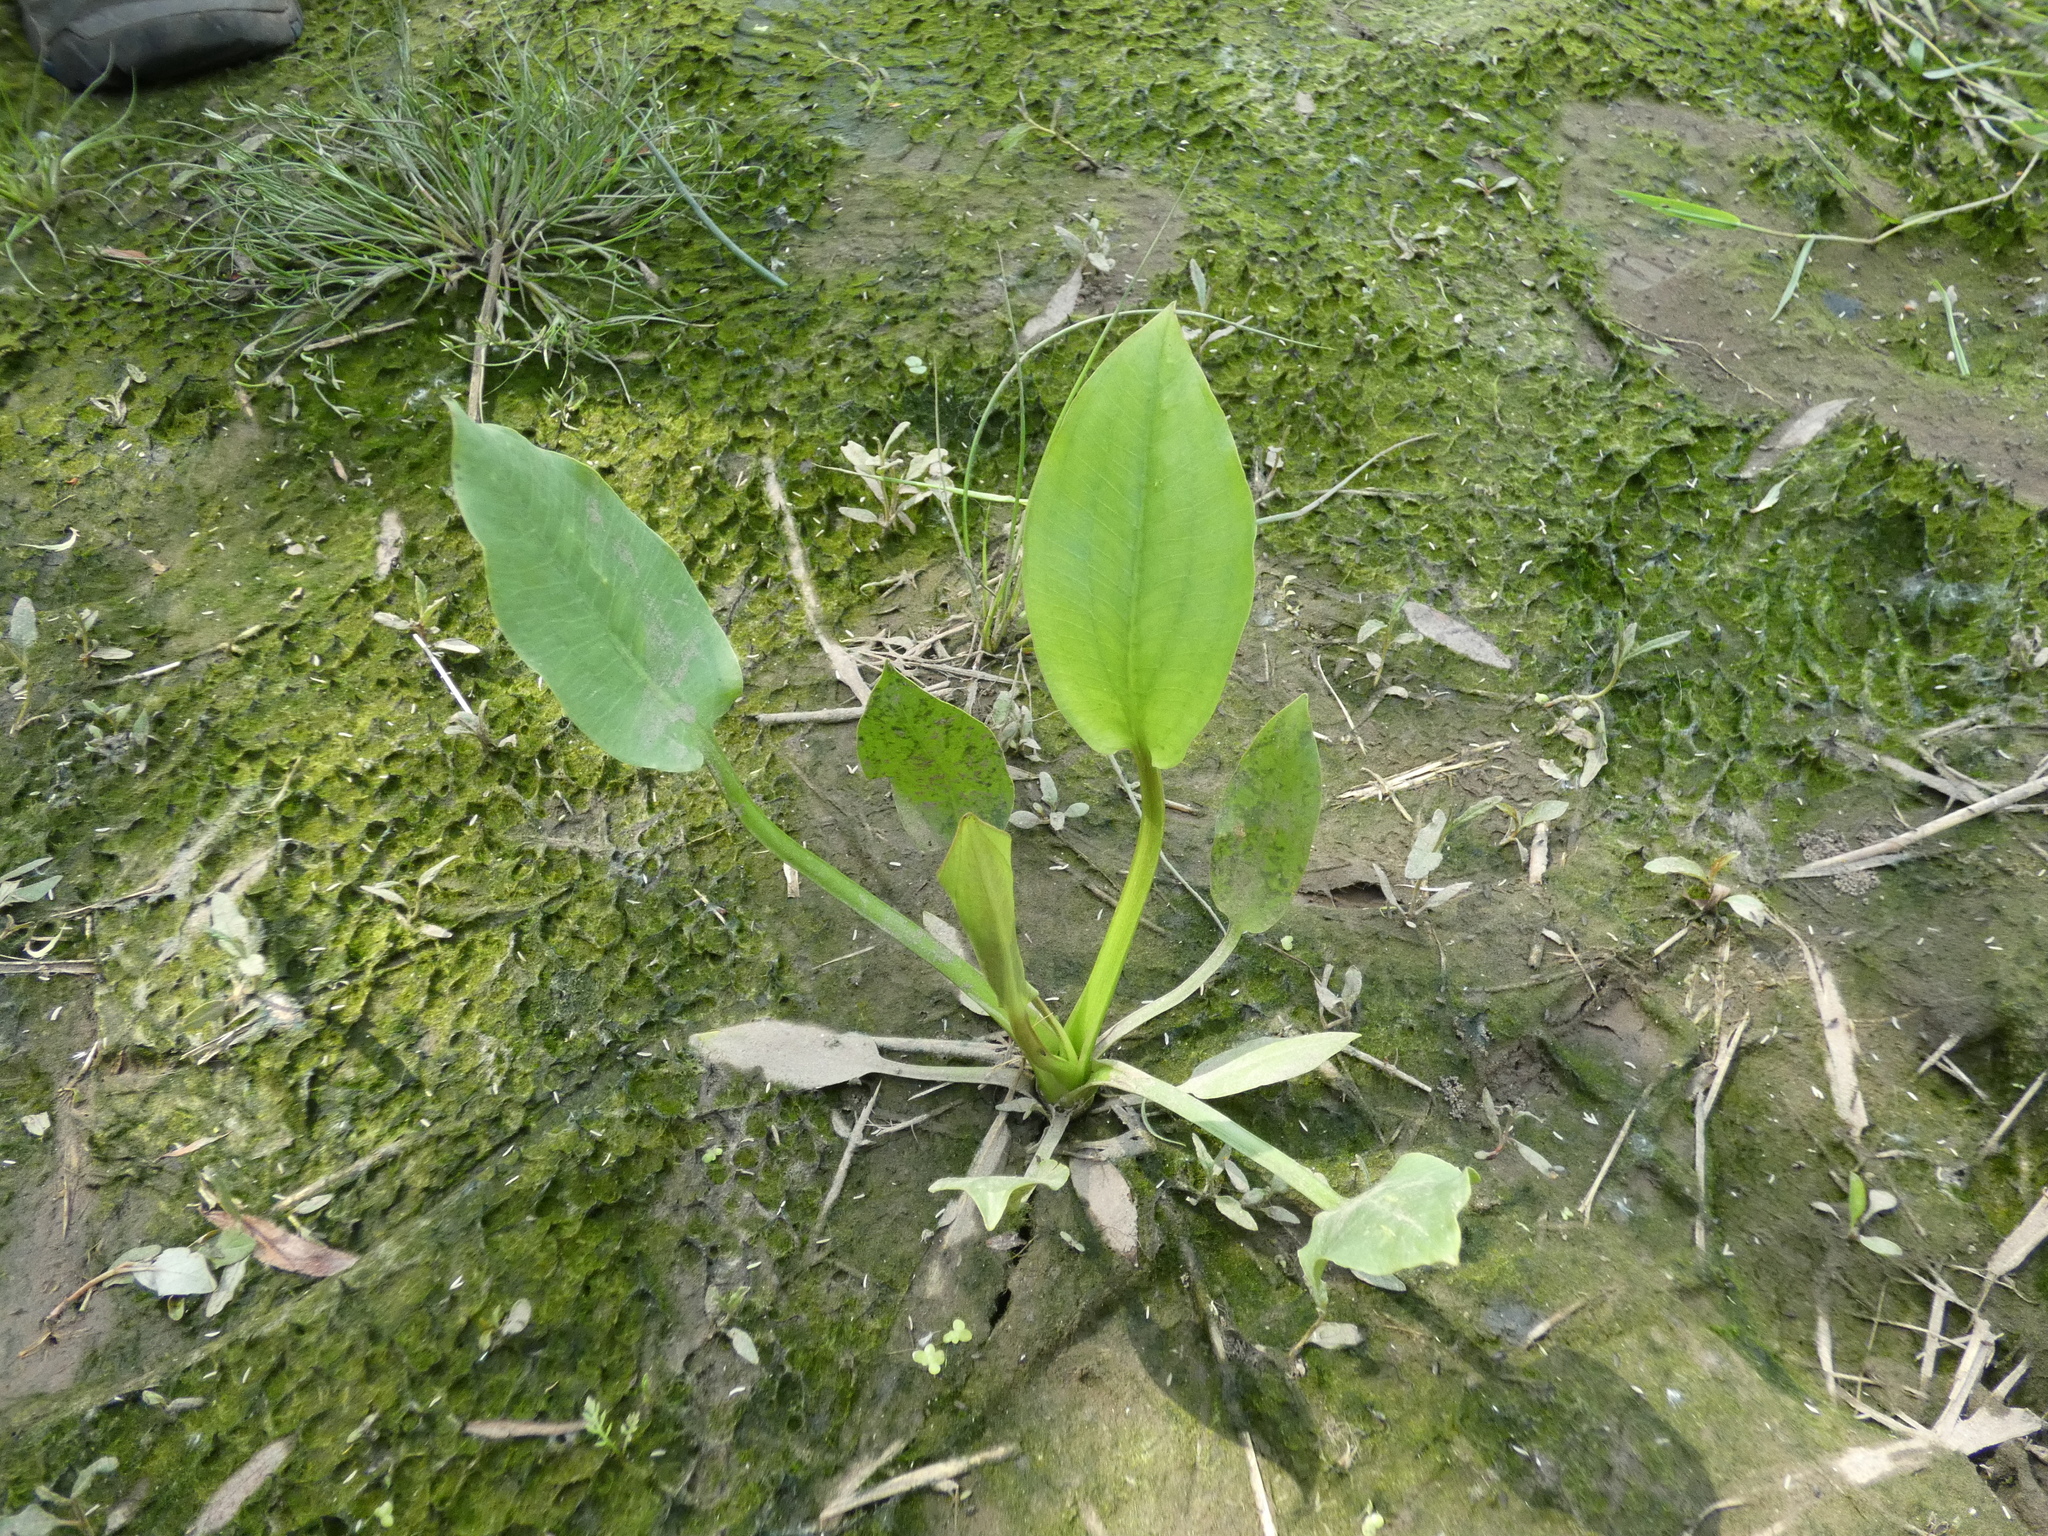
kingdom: Plantae
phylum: Tracheophyta
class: Liliopsida
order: Alismatales
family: Alismataceae
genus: Alisma
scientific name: Alisma plantago-aquatica
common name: Water-plantain
